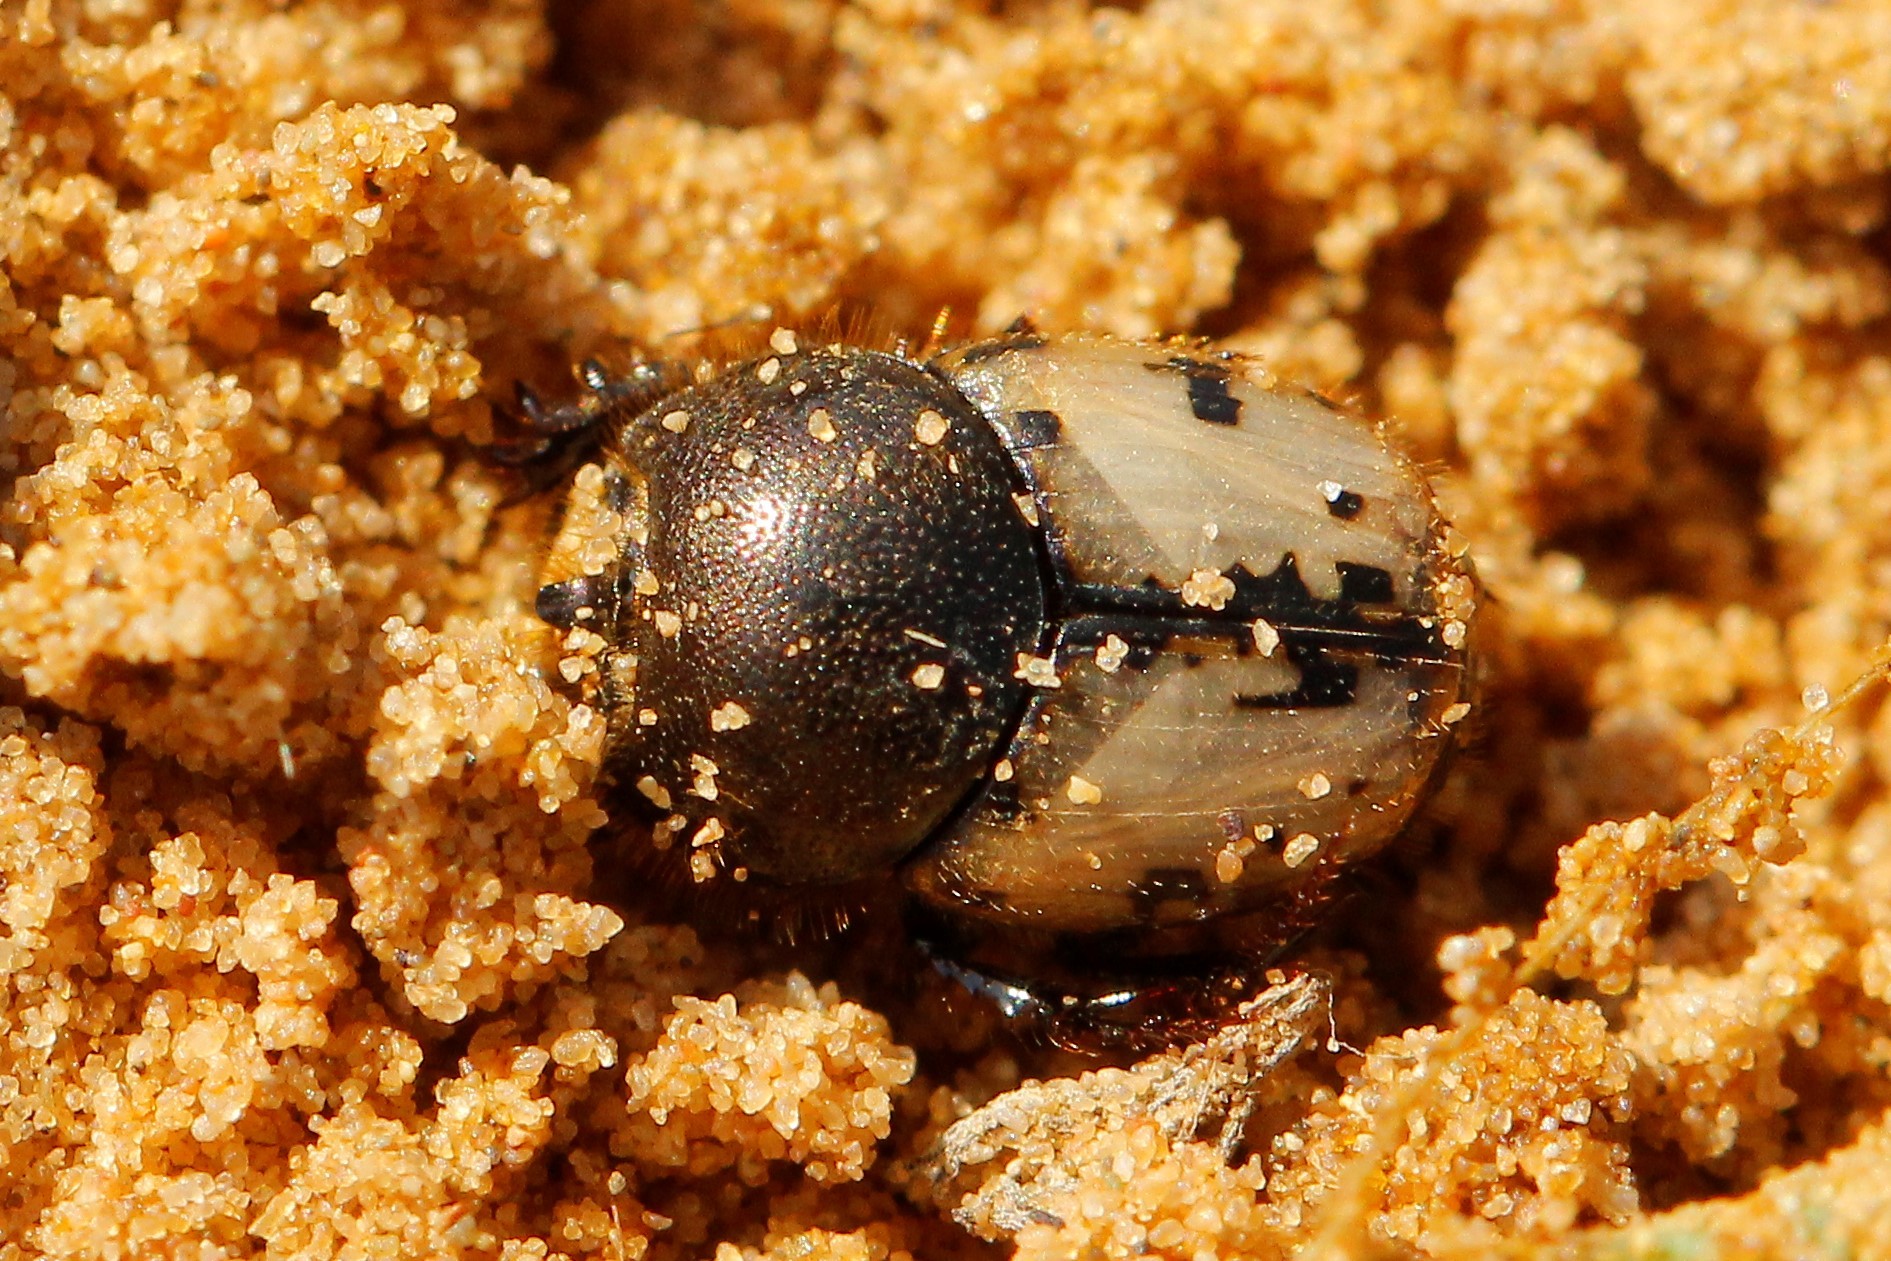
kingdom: Animalia
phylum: Arthropoda
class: Insecta
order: Coleoptera
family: Scarabaeidae
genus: Onthophagus
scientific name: Onthophagus suturellus
